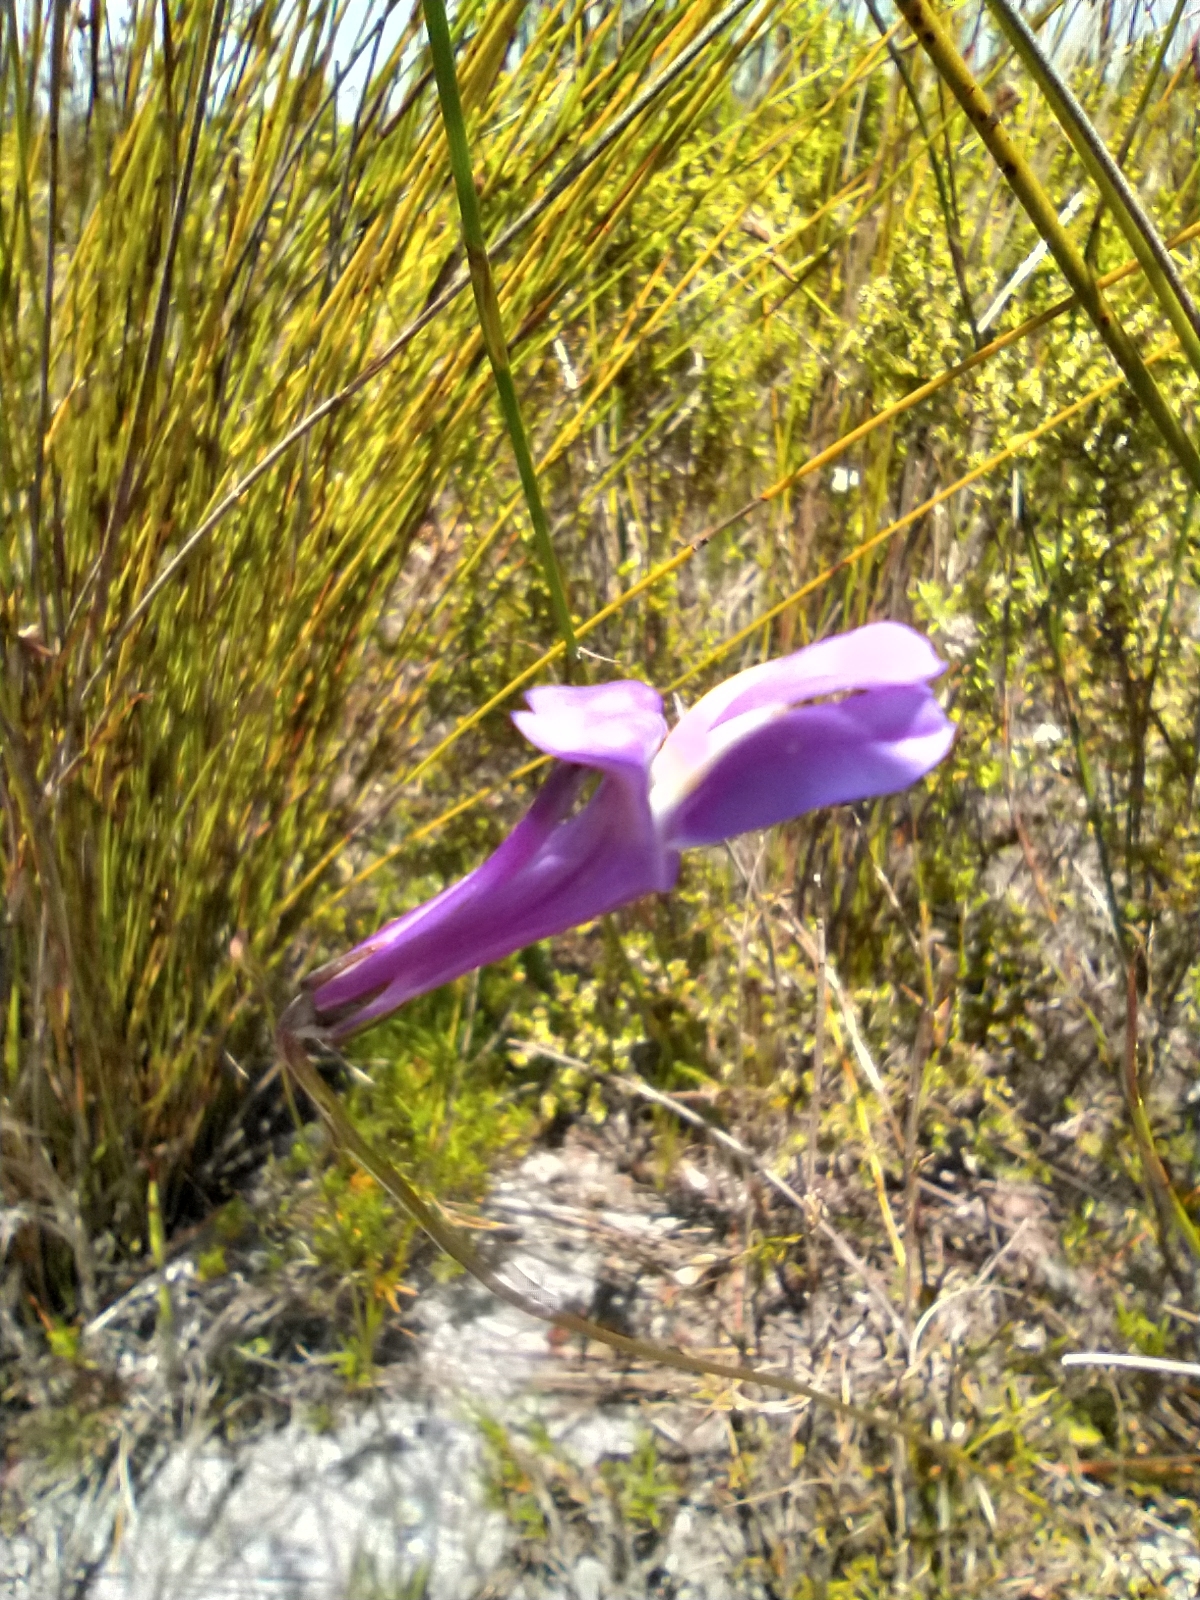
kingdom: Plantae
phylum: Tracheophyta
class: Magnoliopsida
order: Asterales
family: Campanulaceae
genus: Lobelia
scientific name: Lobelia coronopifolia
